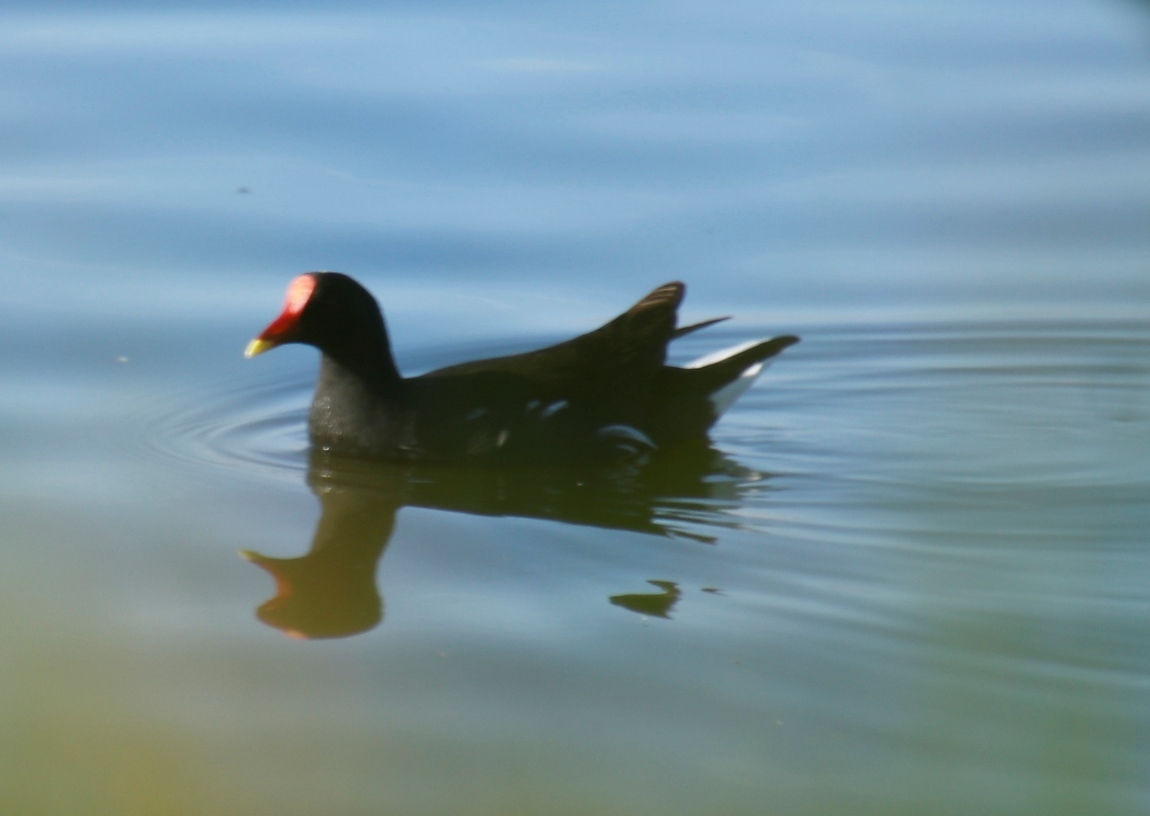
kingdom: Animalia
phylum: Chordata
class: Aves
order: Gruiformes
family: Rallidae
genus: Gallinula
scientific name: Gallinula chloropus
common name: Common moorhen
